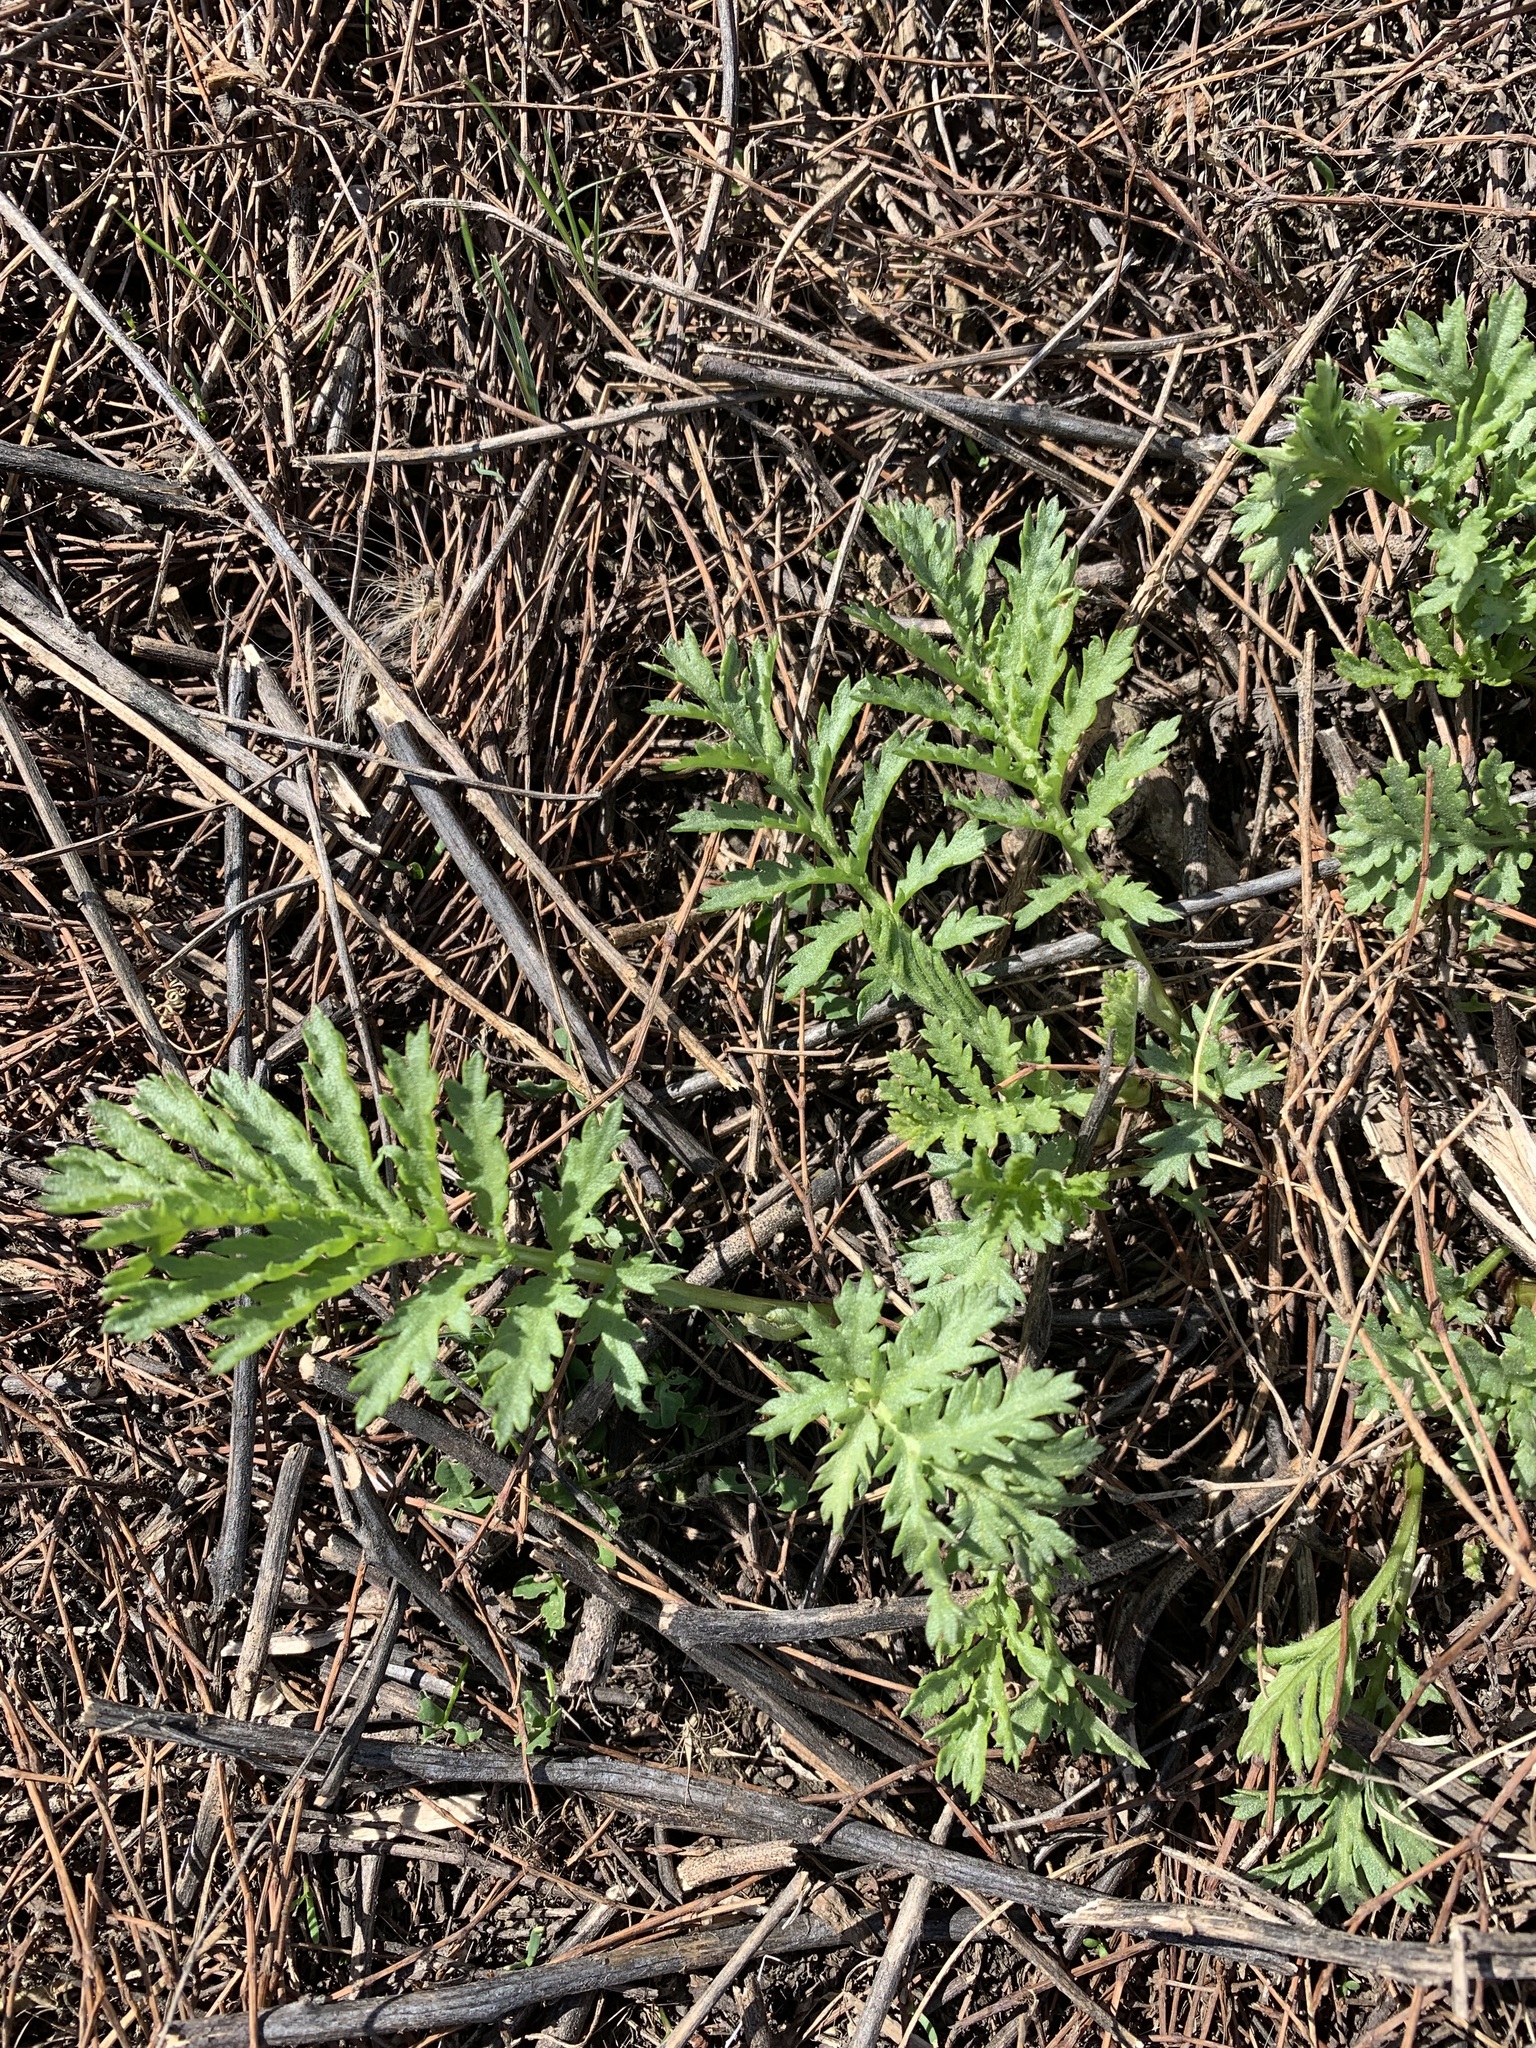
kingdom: Plantae
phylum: Tracheophyta
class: Magnoliopsida
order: Asterales
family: Asteraceae
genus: Tanacetum
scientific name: Tanacetum vulgare
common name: Common tansy
